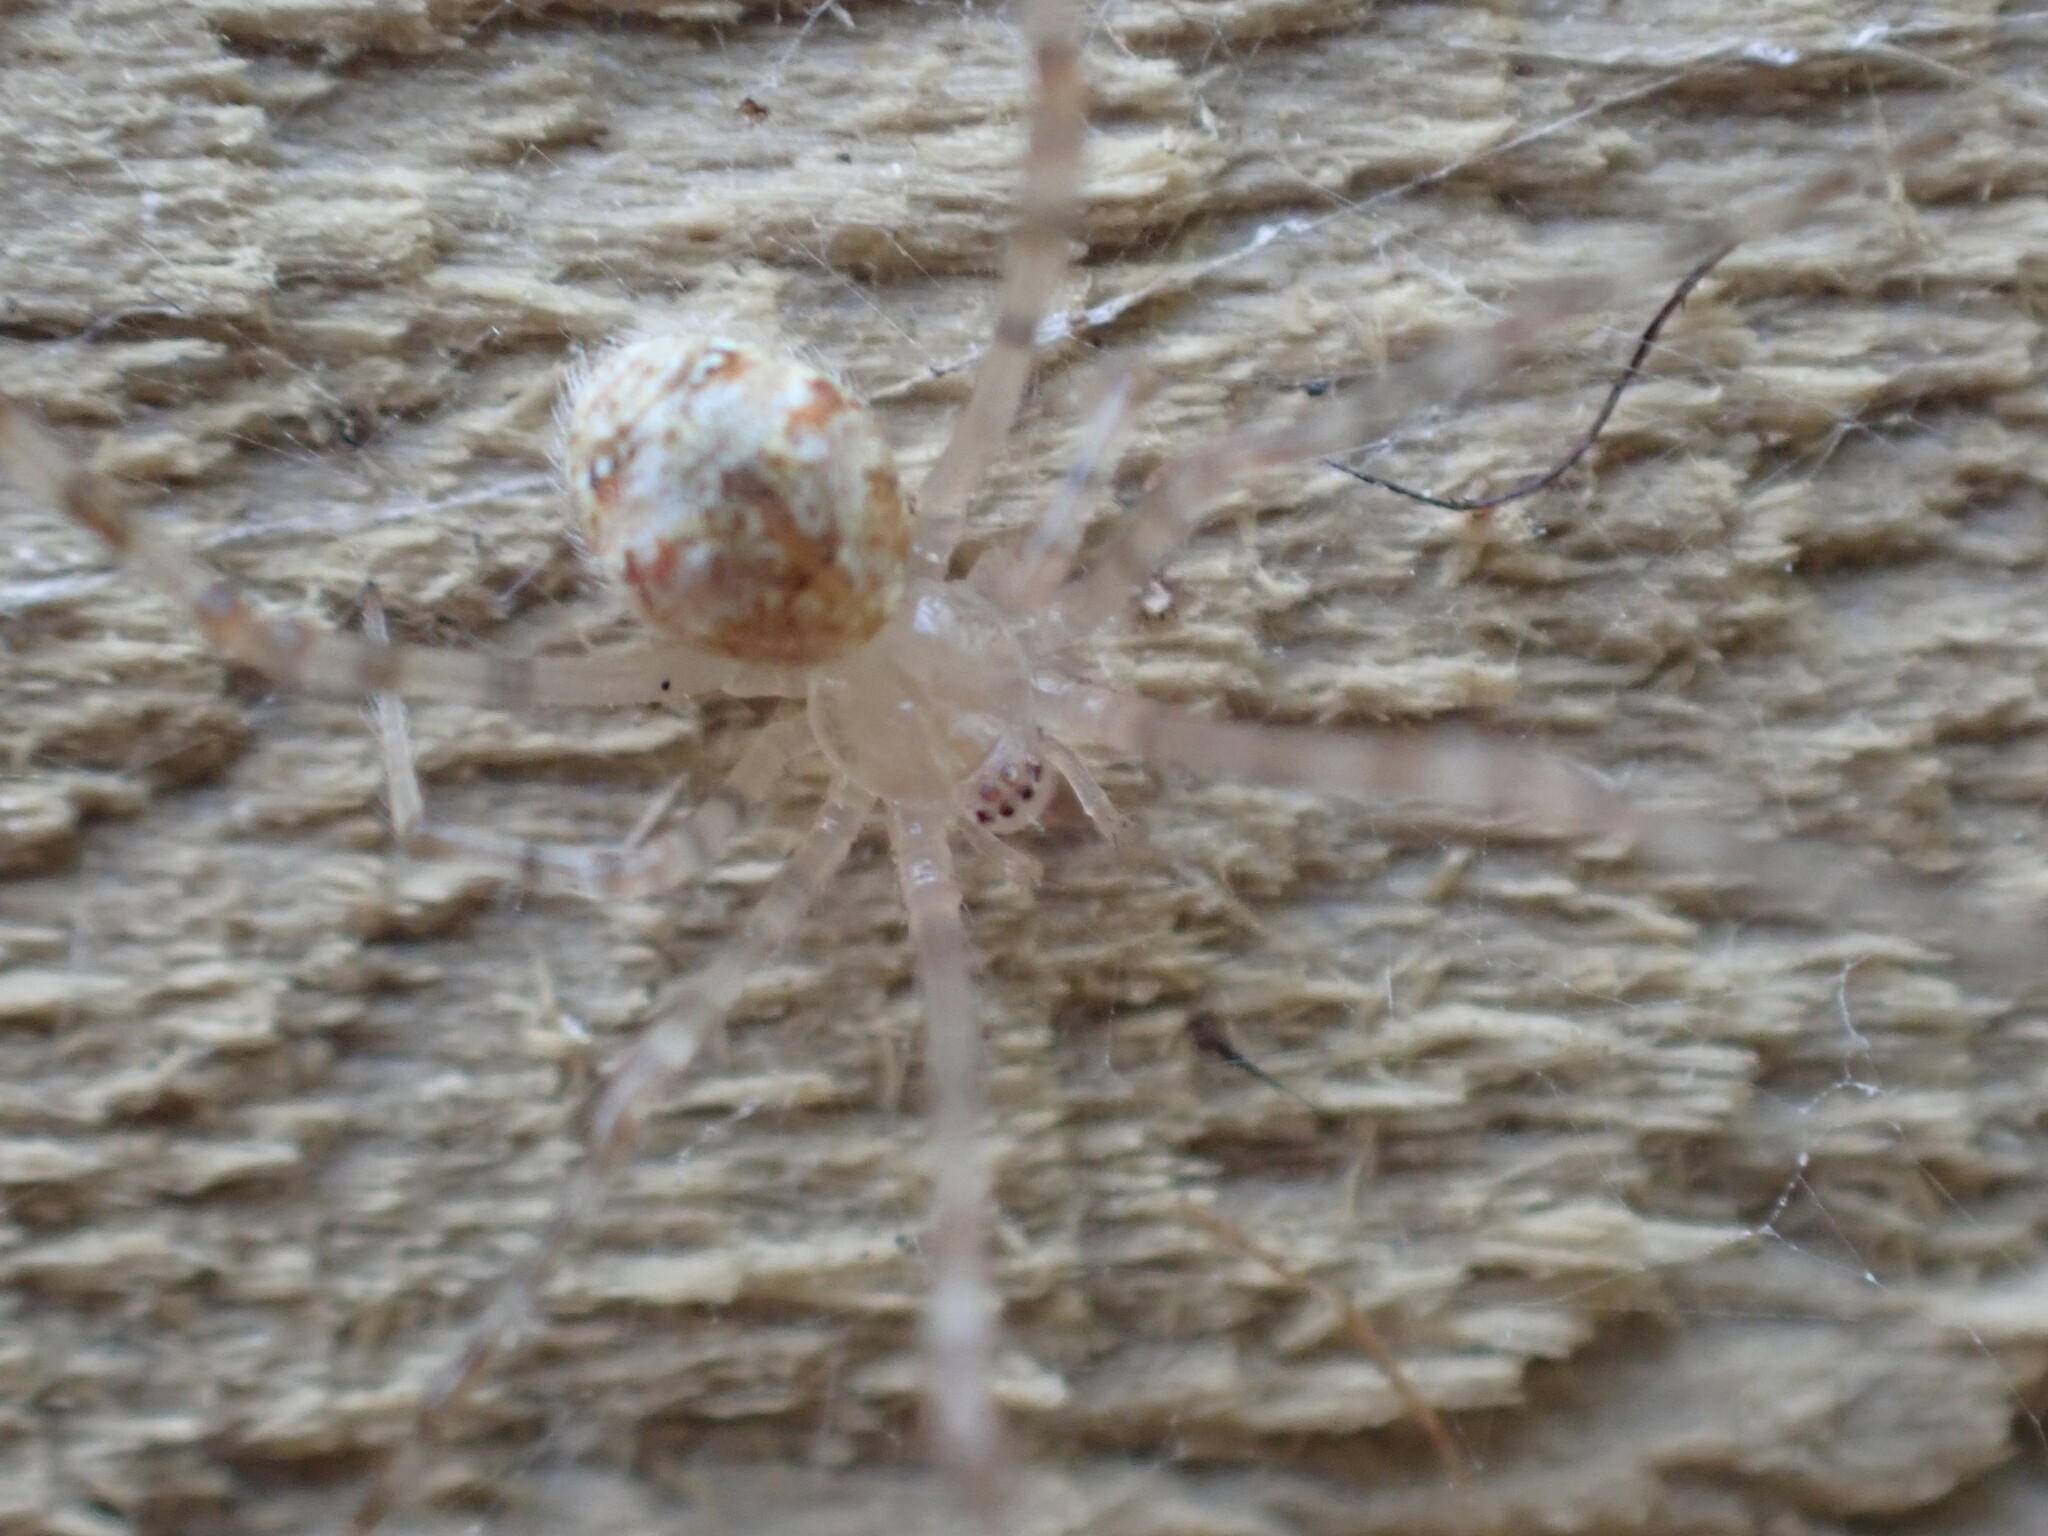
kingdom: Animalia
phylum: Arthropoda
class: Arachnida
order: Araneae
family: Theridiidae
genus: Cryptachaea
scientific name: Cryptachaea gigantipes
